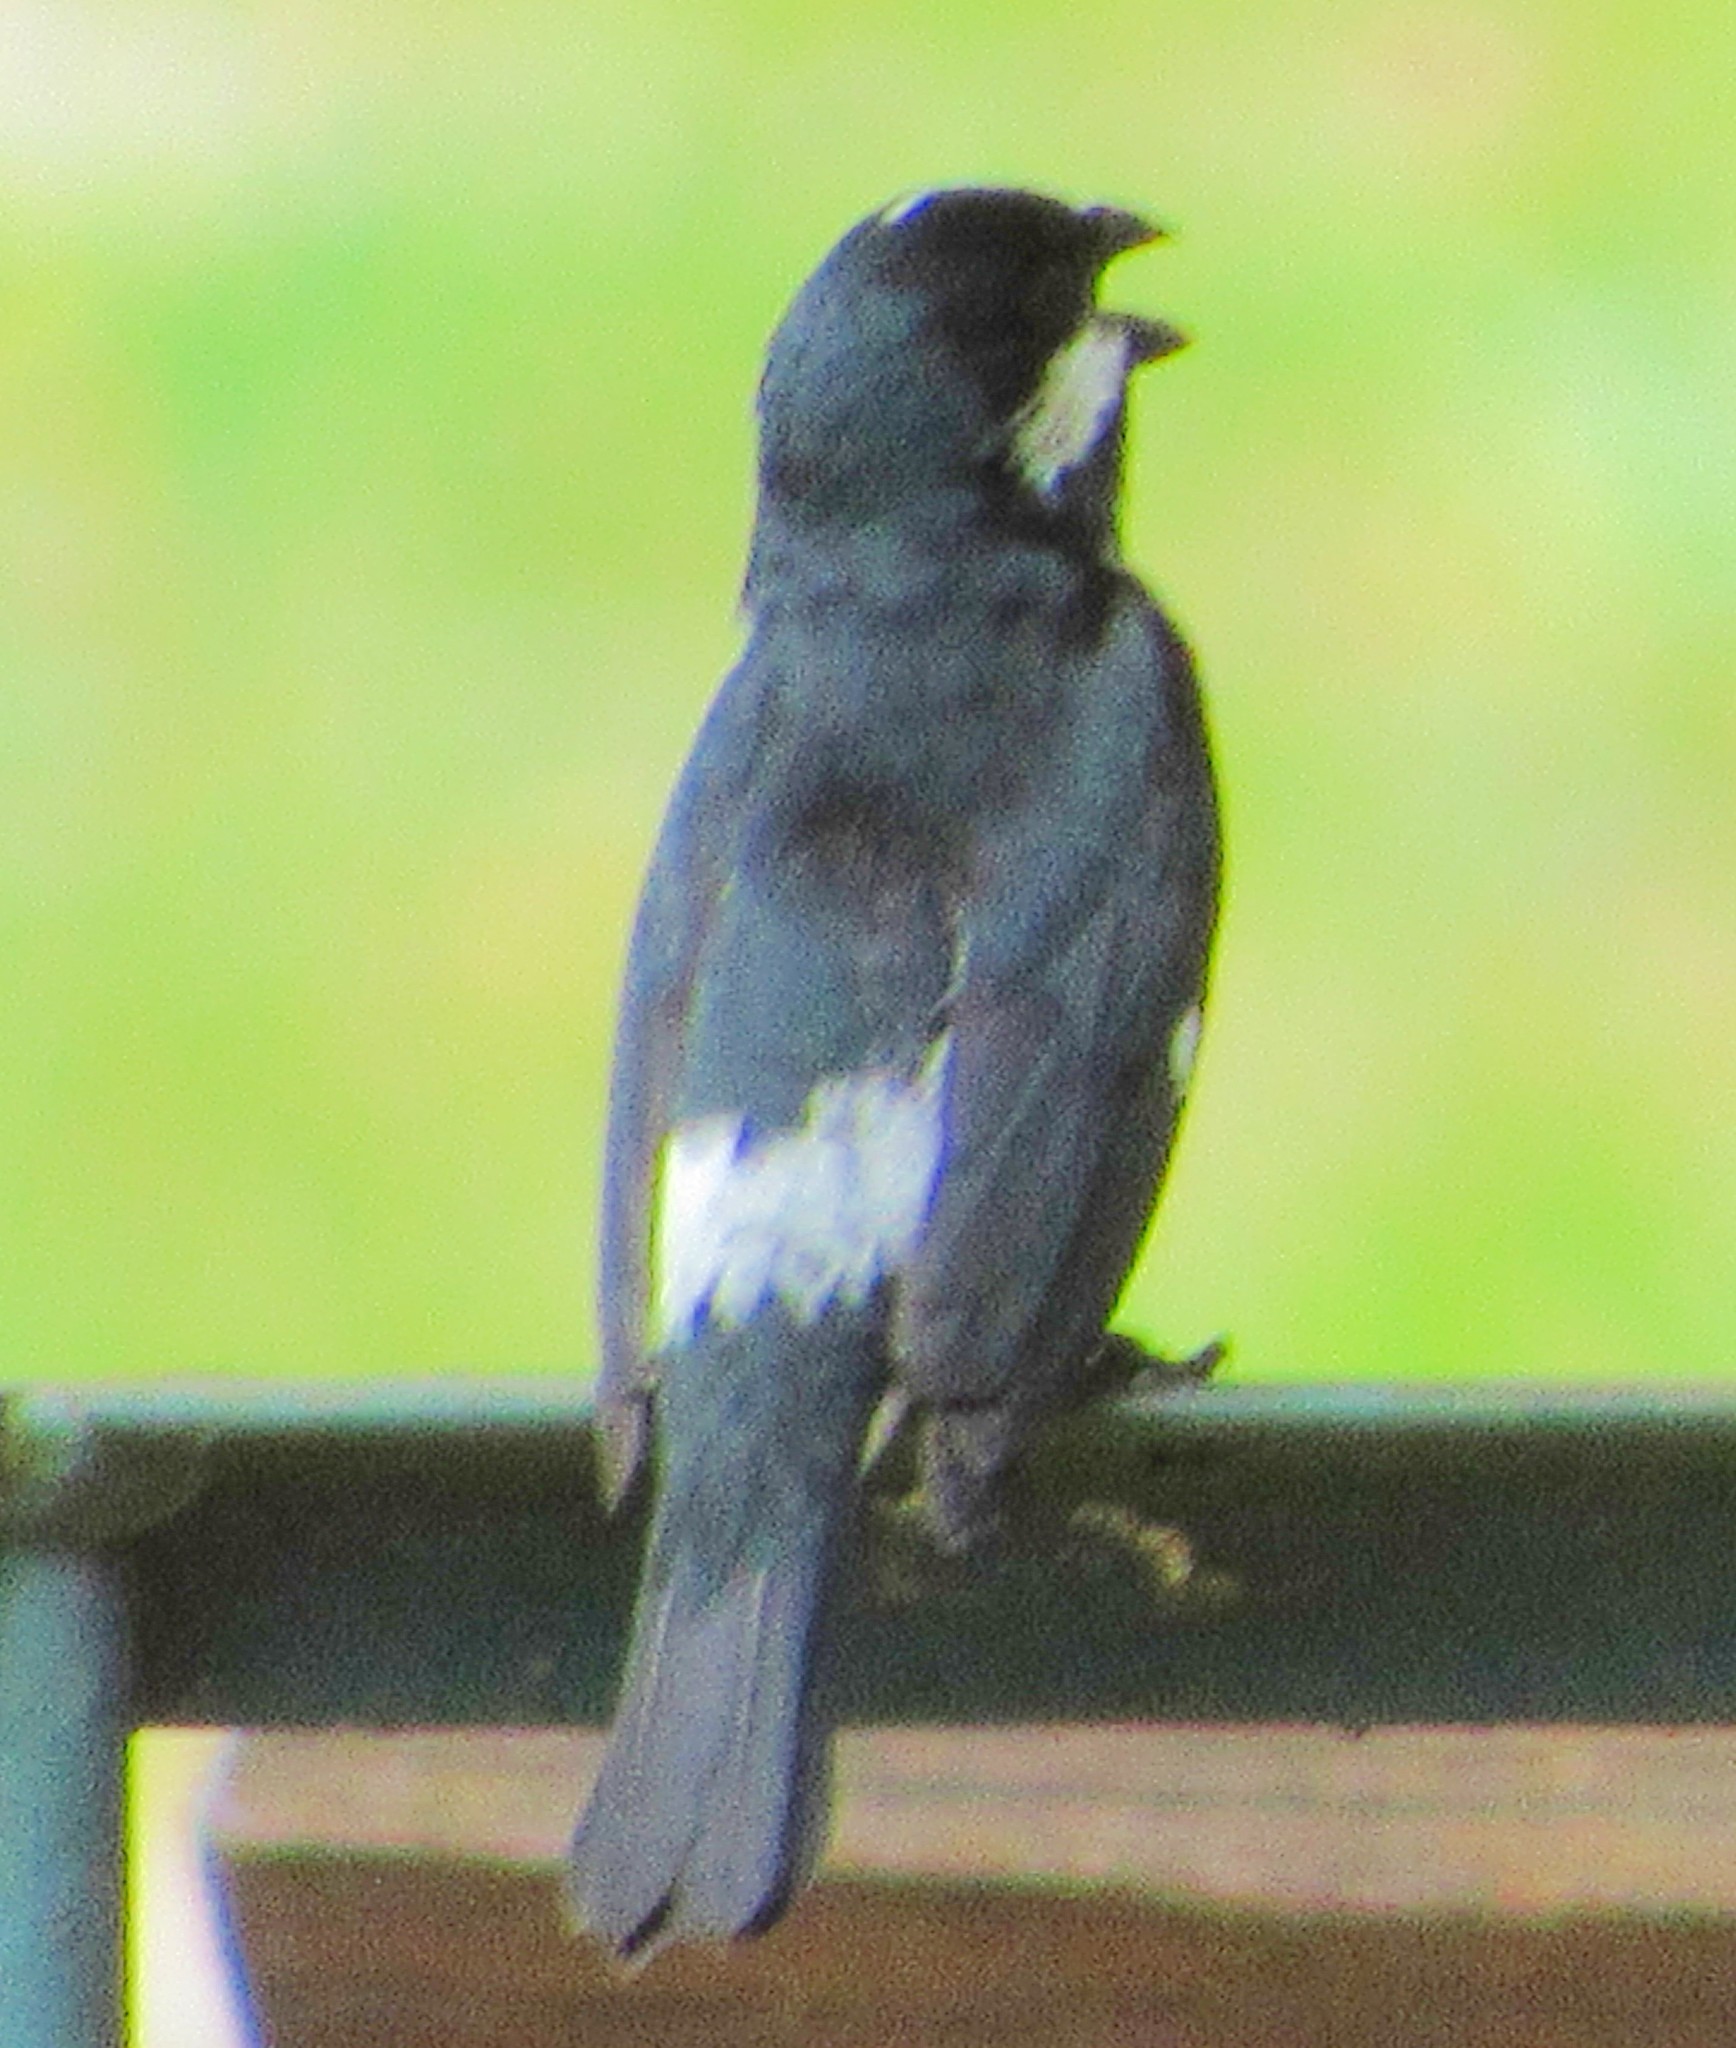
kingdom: Animalia
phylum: Chordata
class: Aves
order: Passeriformes
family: Thraupidae
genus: Sporophila
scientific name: Sporophila lineola
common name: Lined seedeater
